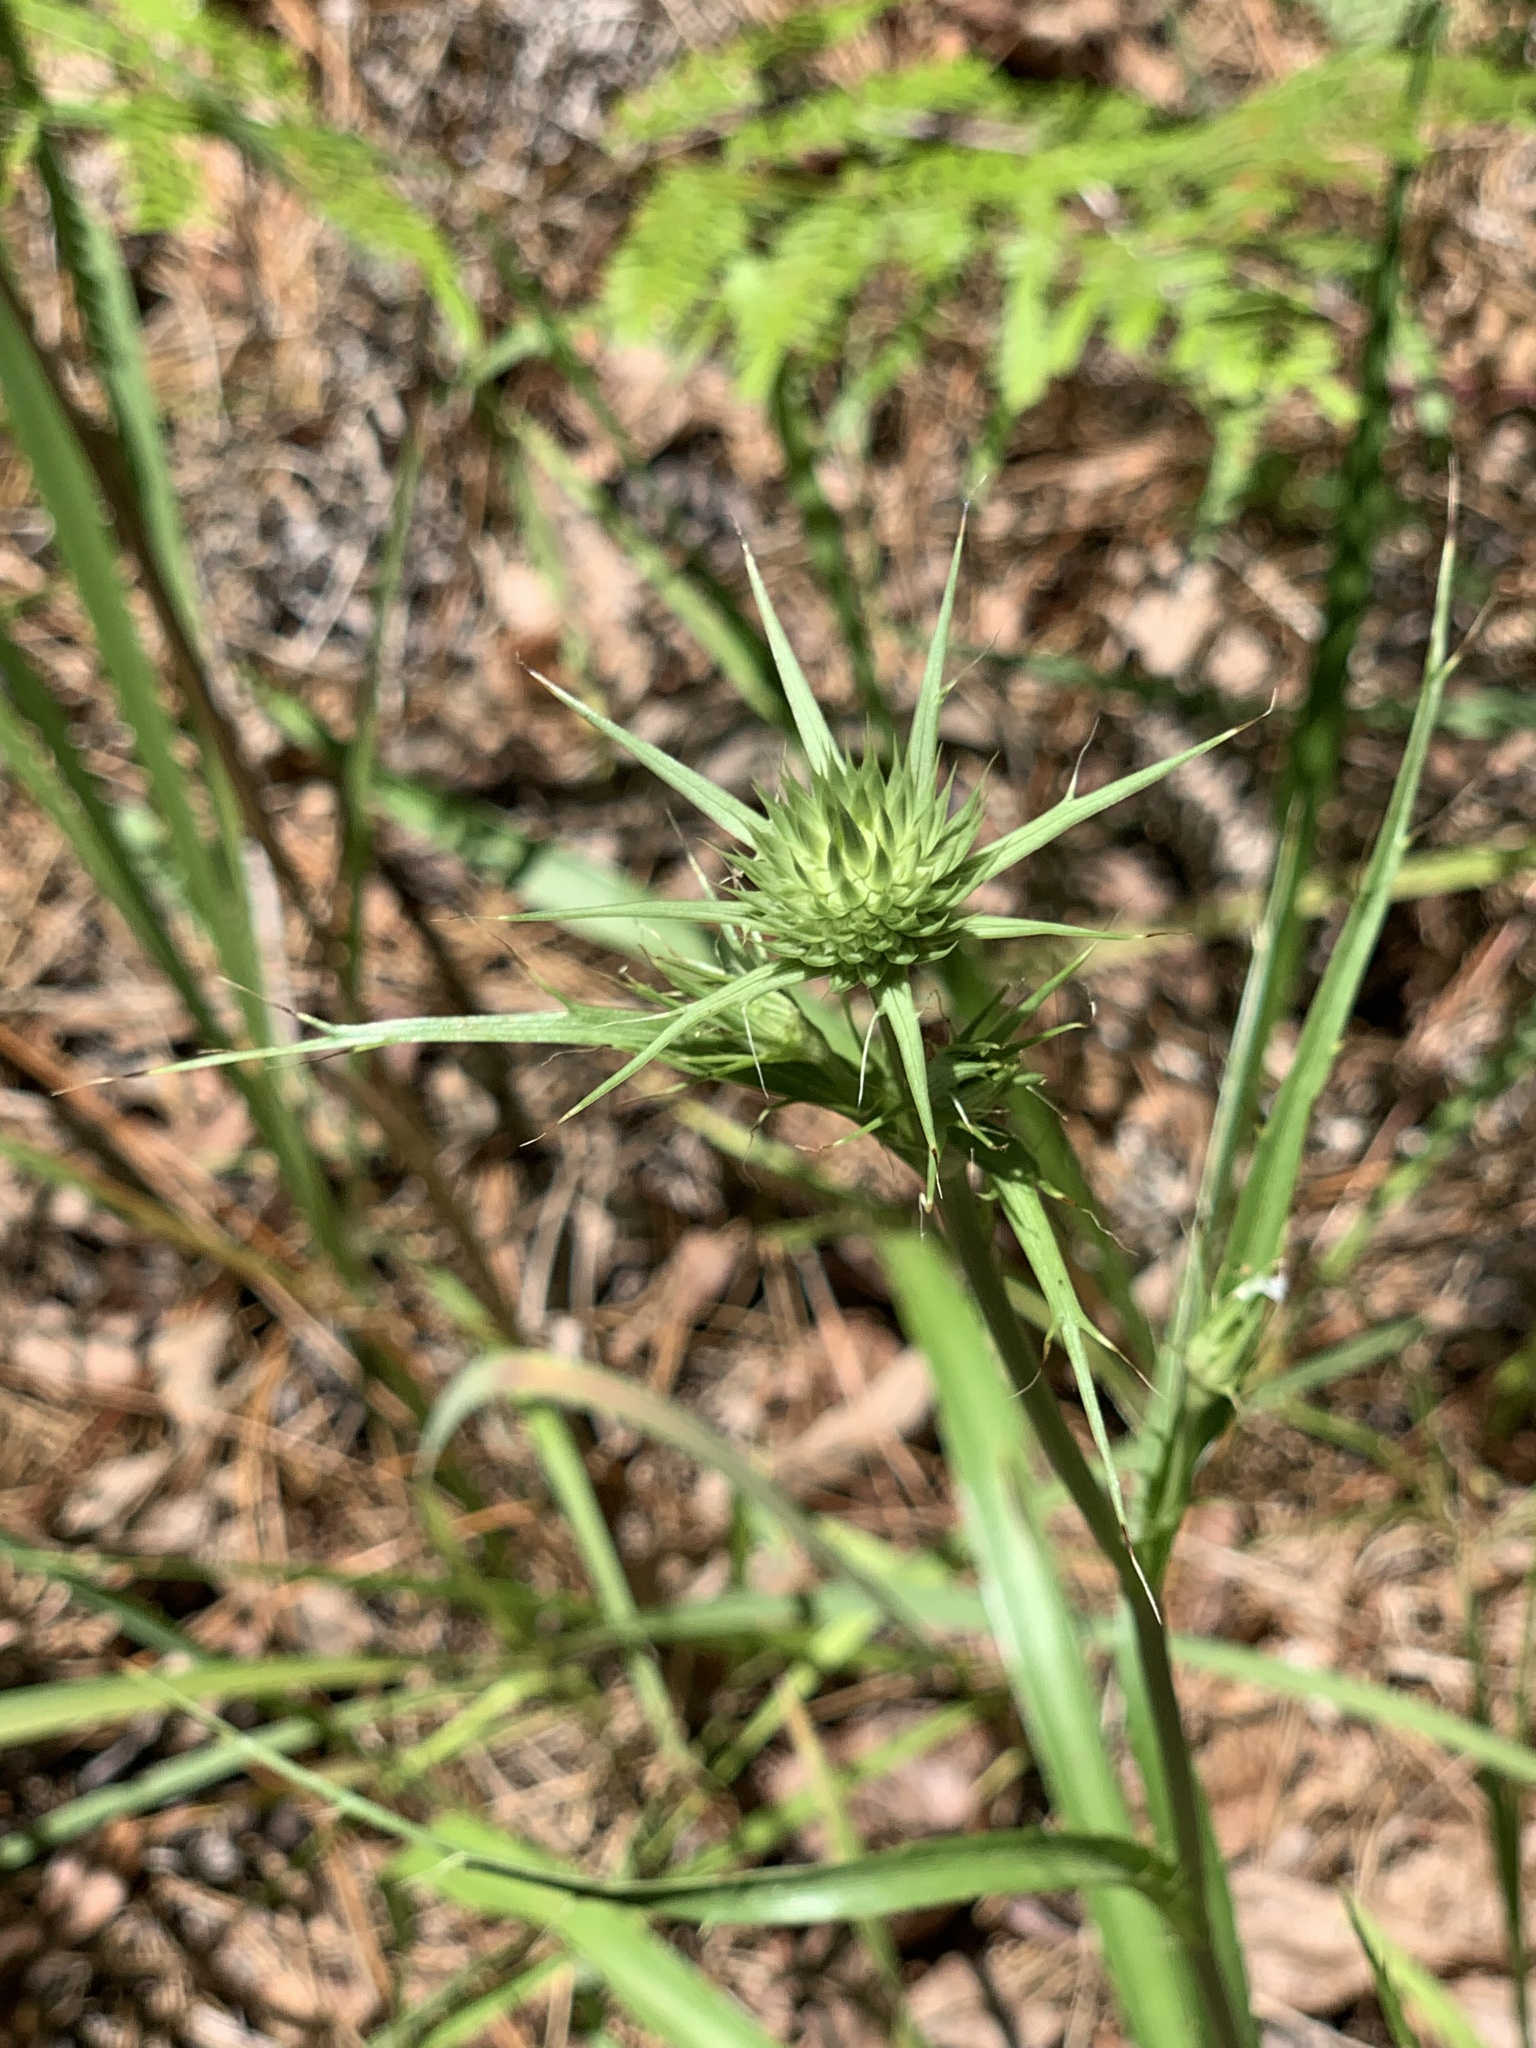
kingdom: Plantae
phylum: Tracheophyta
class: Magnoliopsida
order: Apiales
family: Apiaceae
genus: Eryngium
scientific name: Eryngium yuccifolium
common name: Button eryngo
